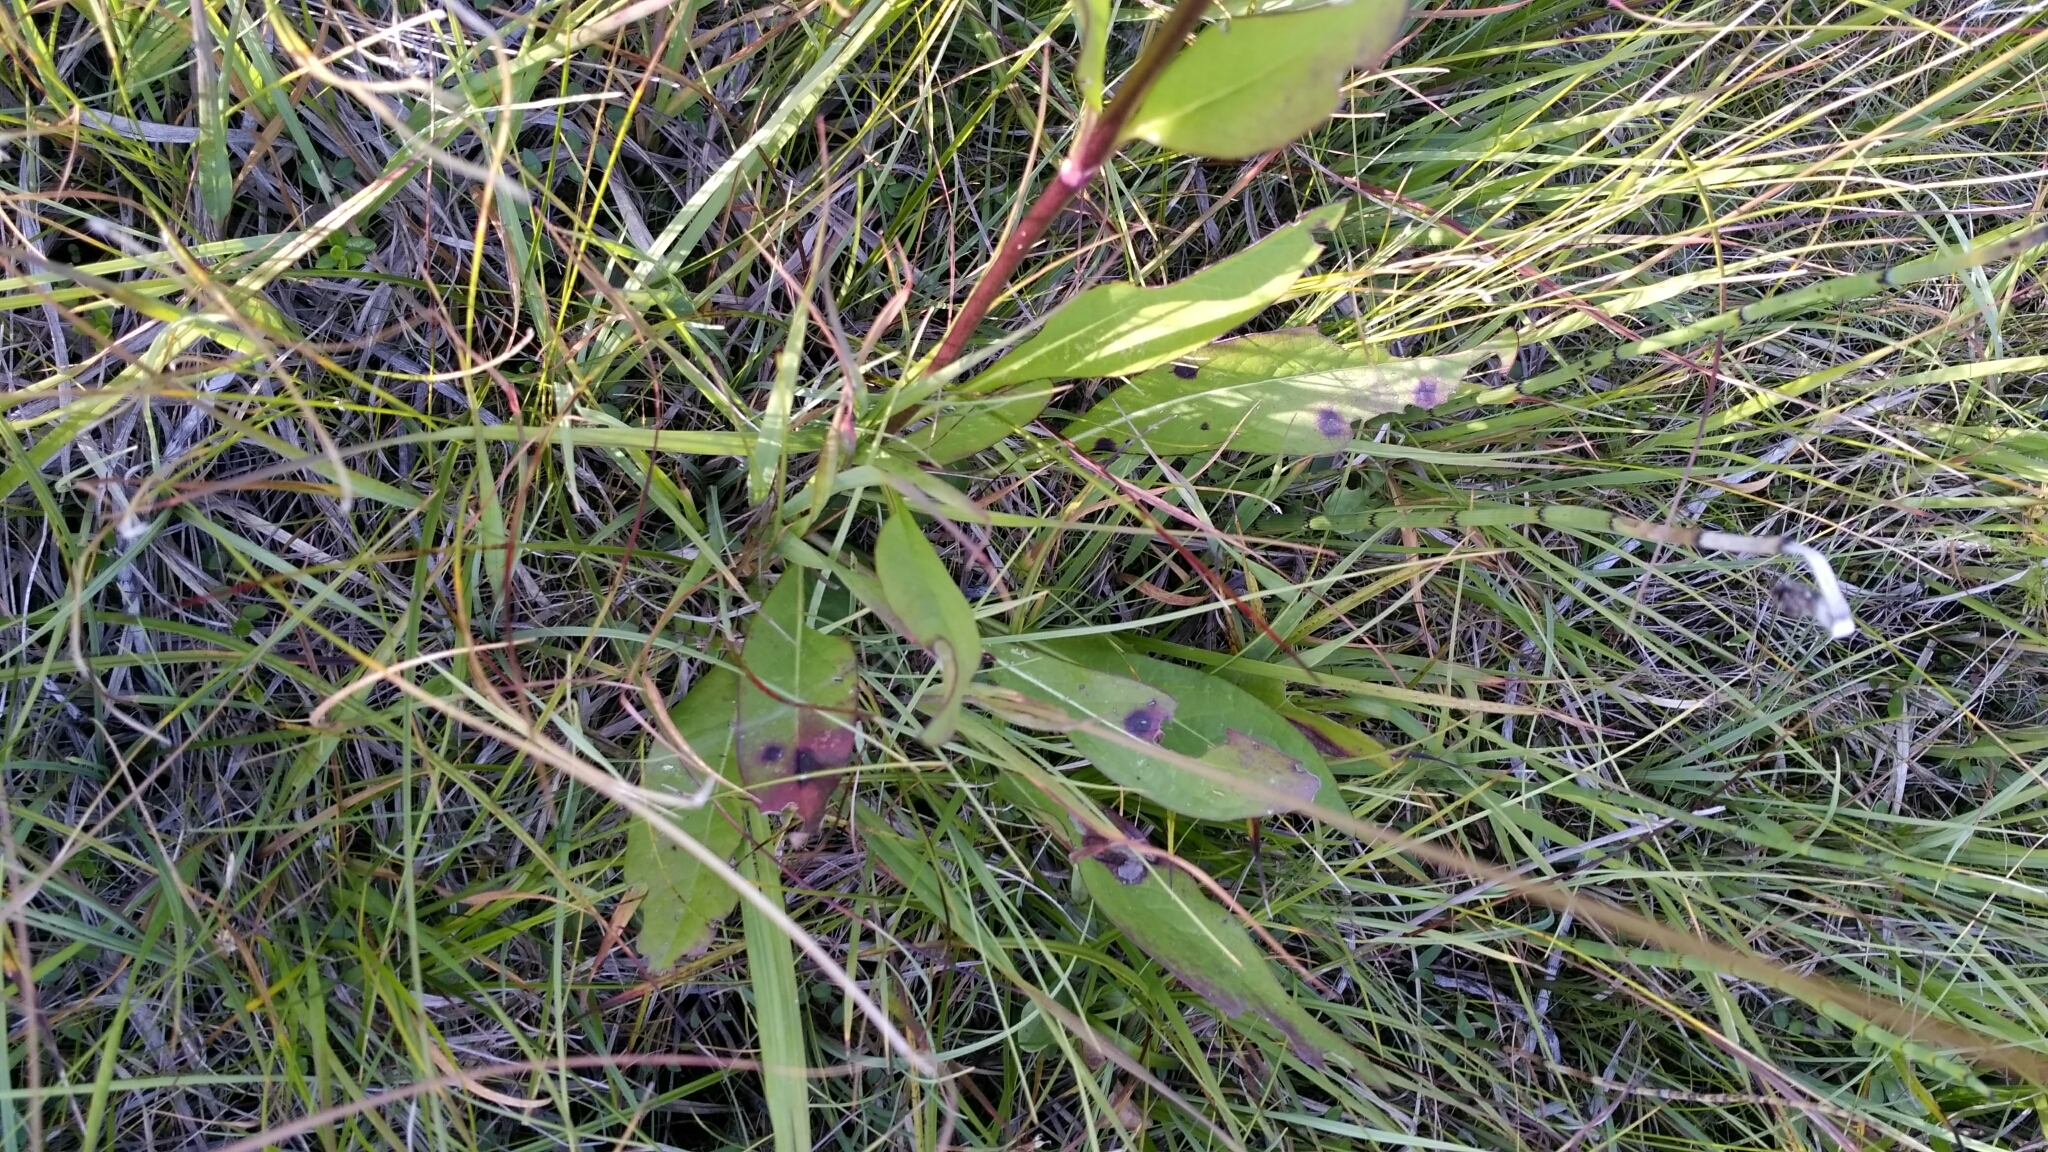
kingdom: Plantae
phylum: Tracheophyta
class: Magnoliopsida
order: Dipsacales
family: Caprifoliaceae
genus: Succisa
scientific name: Succisa pratensis
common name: Devil's-bit
